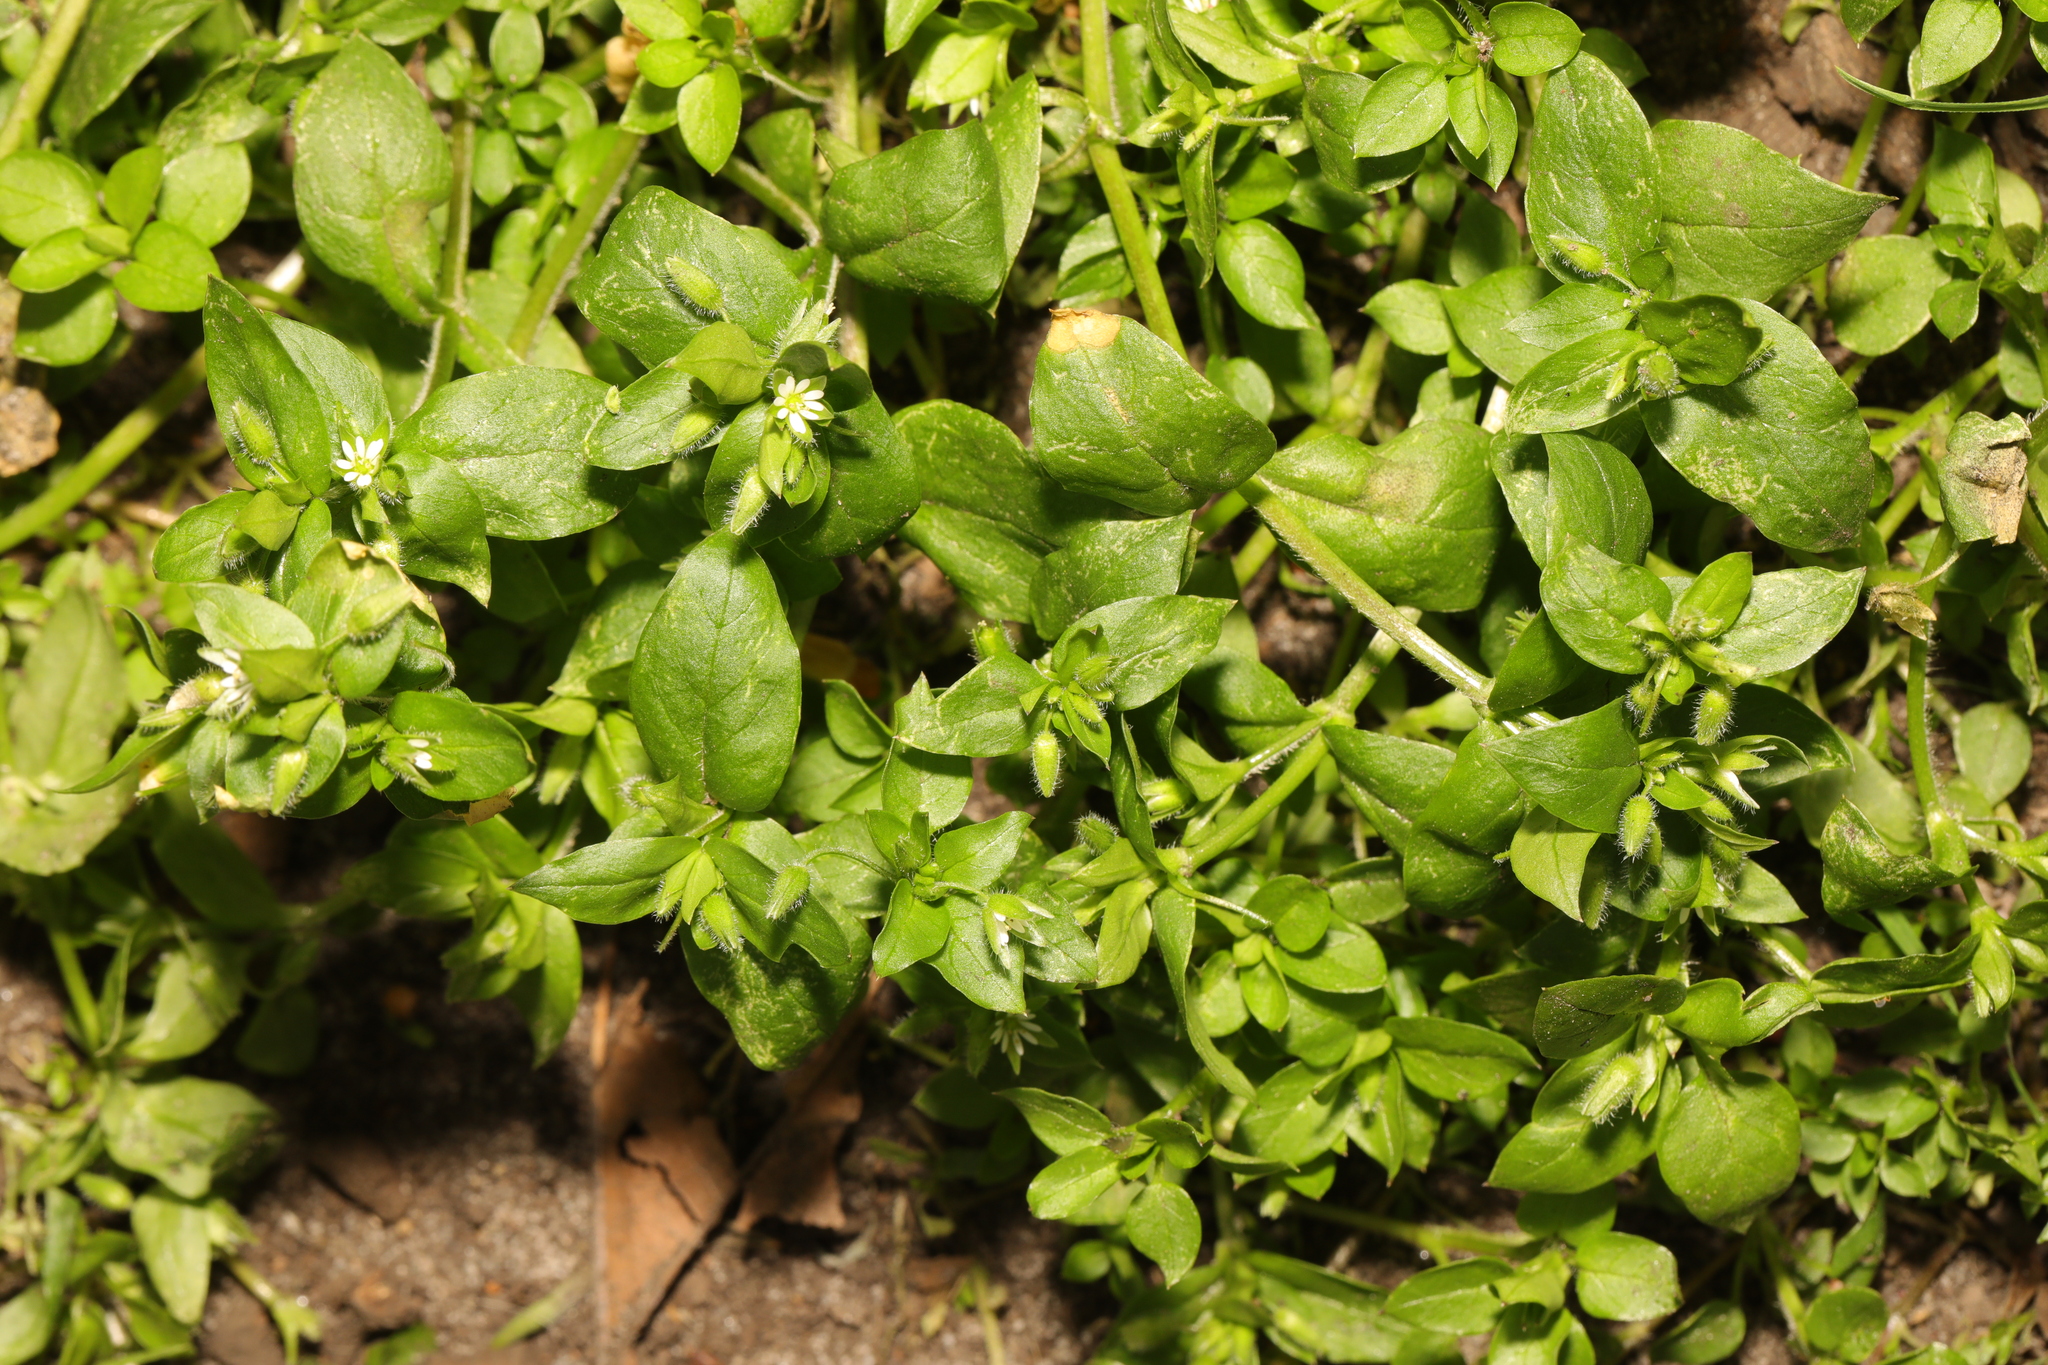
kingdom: Plantae
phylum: Tracheophyta
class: Magnoliopsida
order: Caryophyllales
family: Caryophyllaceae
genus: Stellaria
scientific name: Stellaria media
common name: Common chickweed
